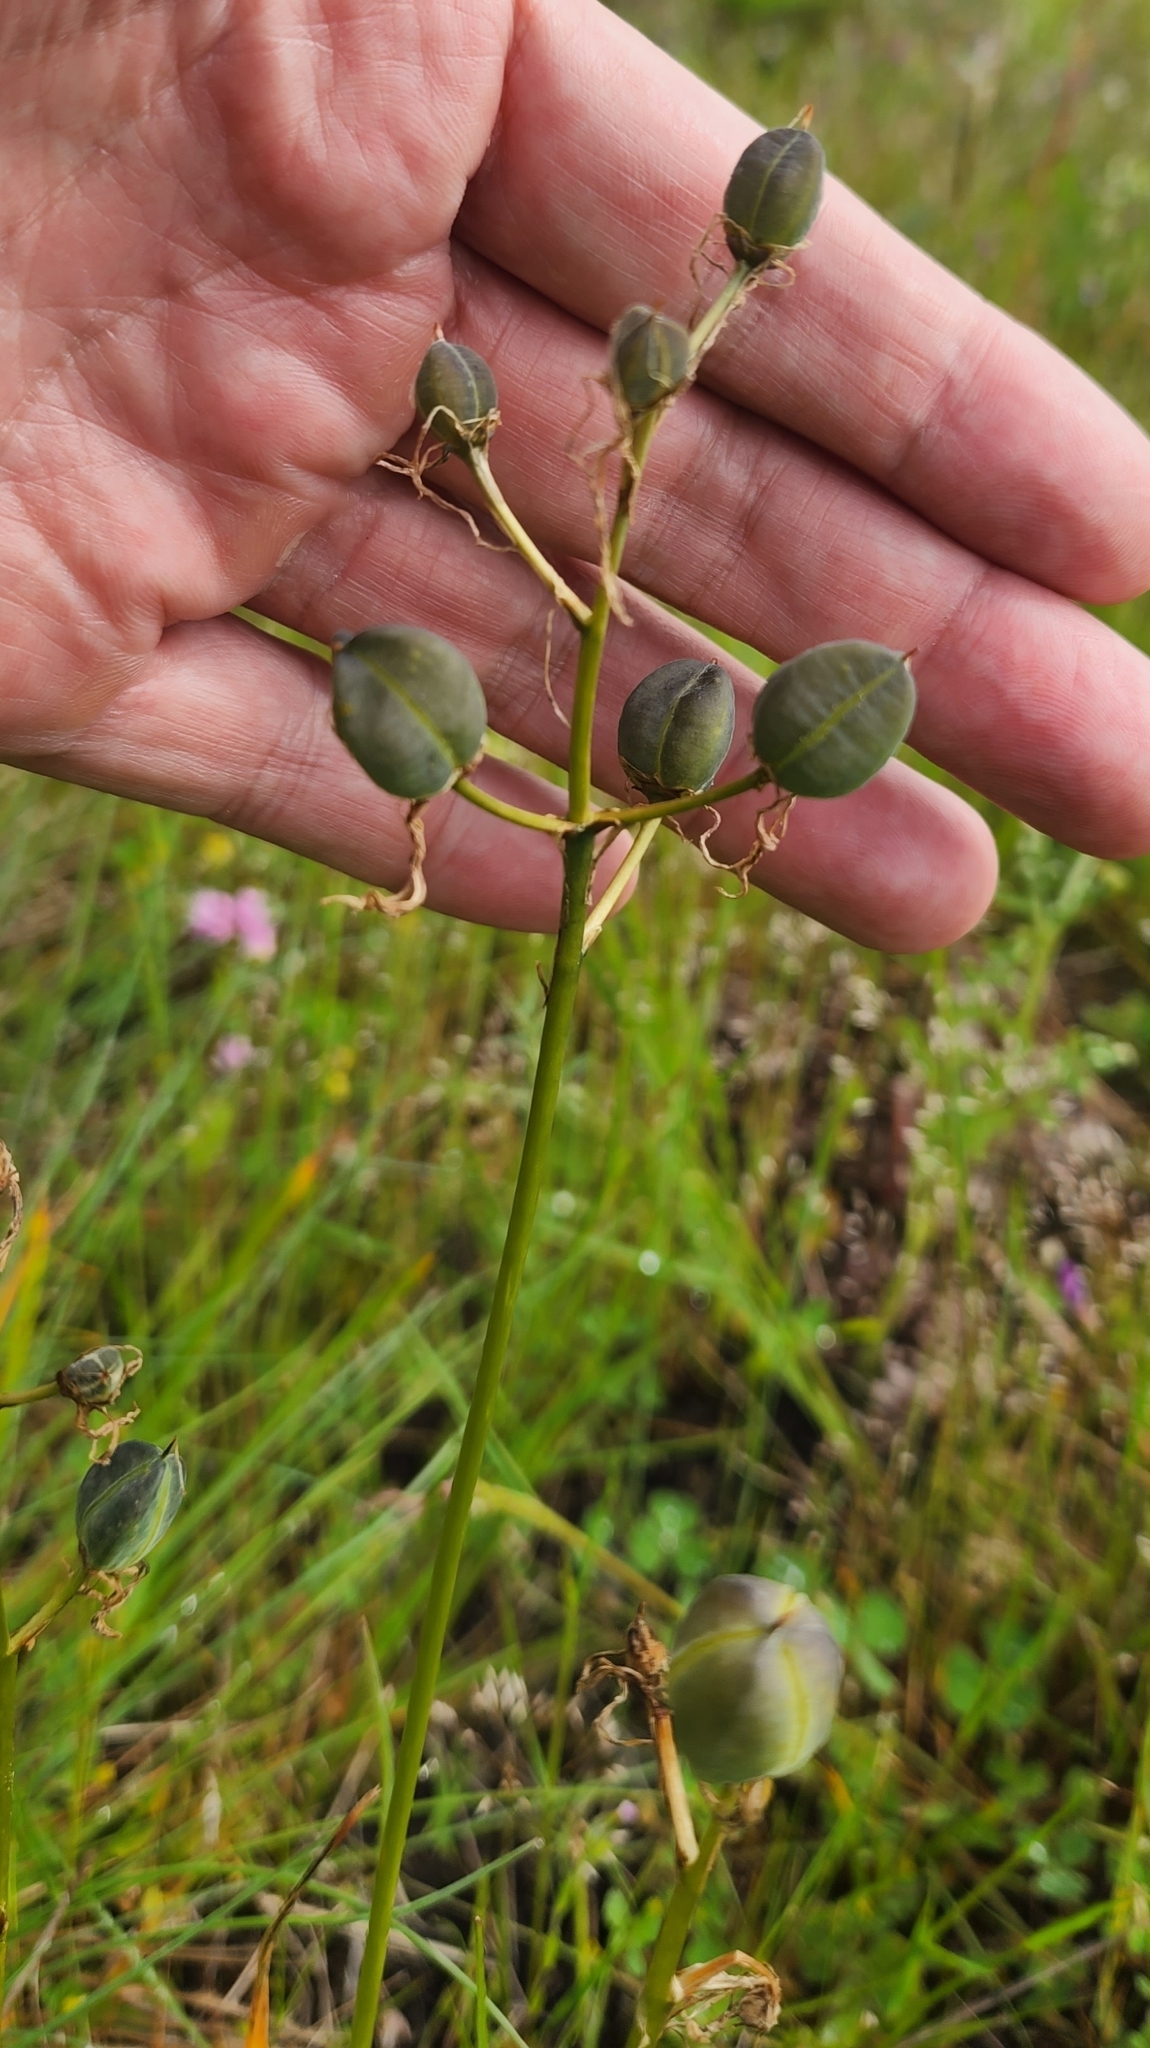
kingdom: Plantae
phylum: Tracheophyta
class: Liliopsida
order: Asparagales
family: Asparagaceae
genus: Camassia
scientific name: Camassia quamash
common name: Common camas
